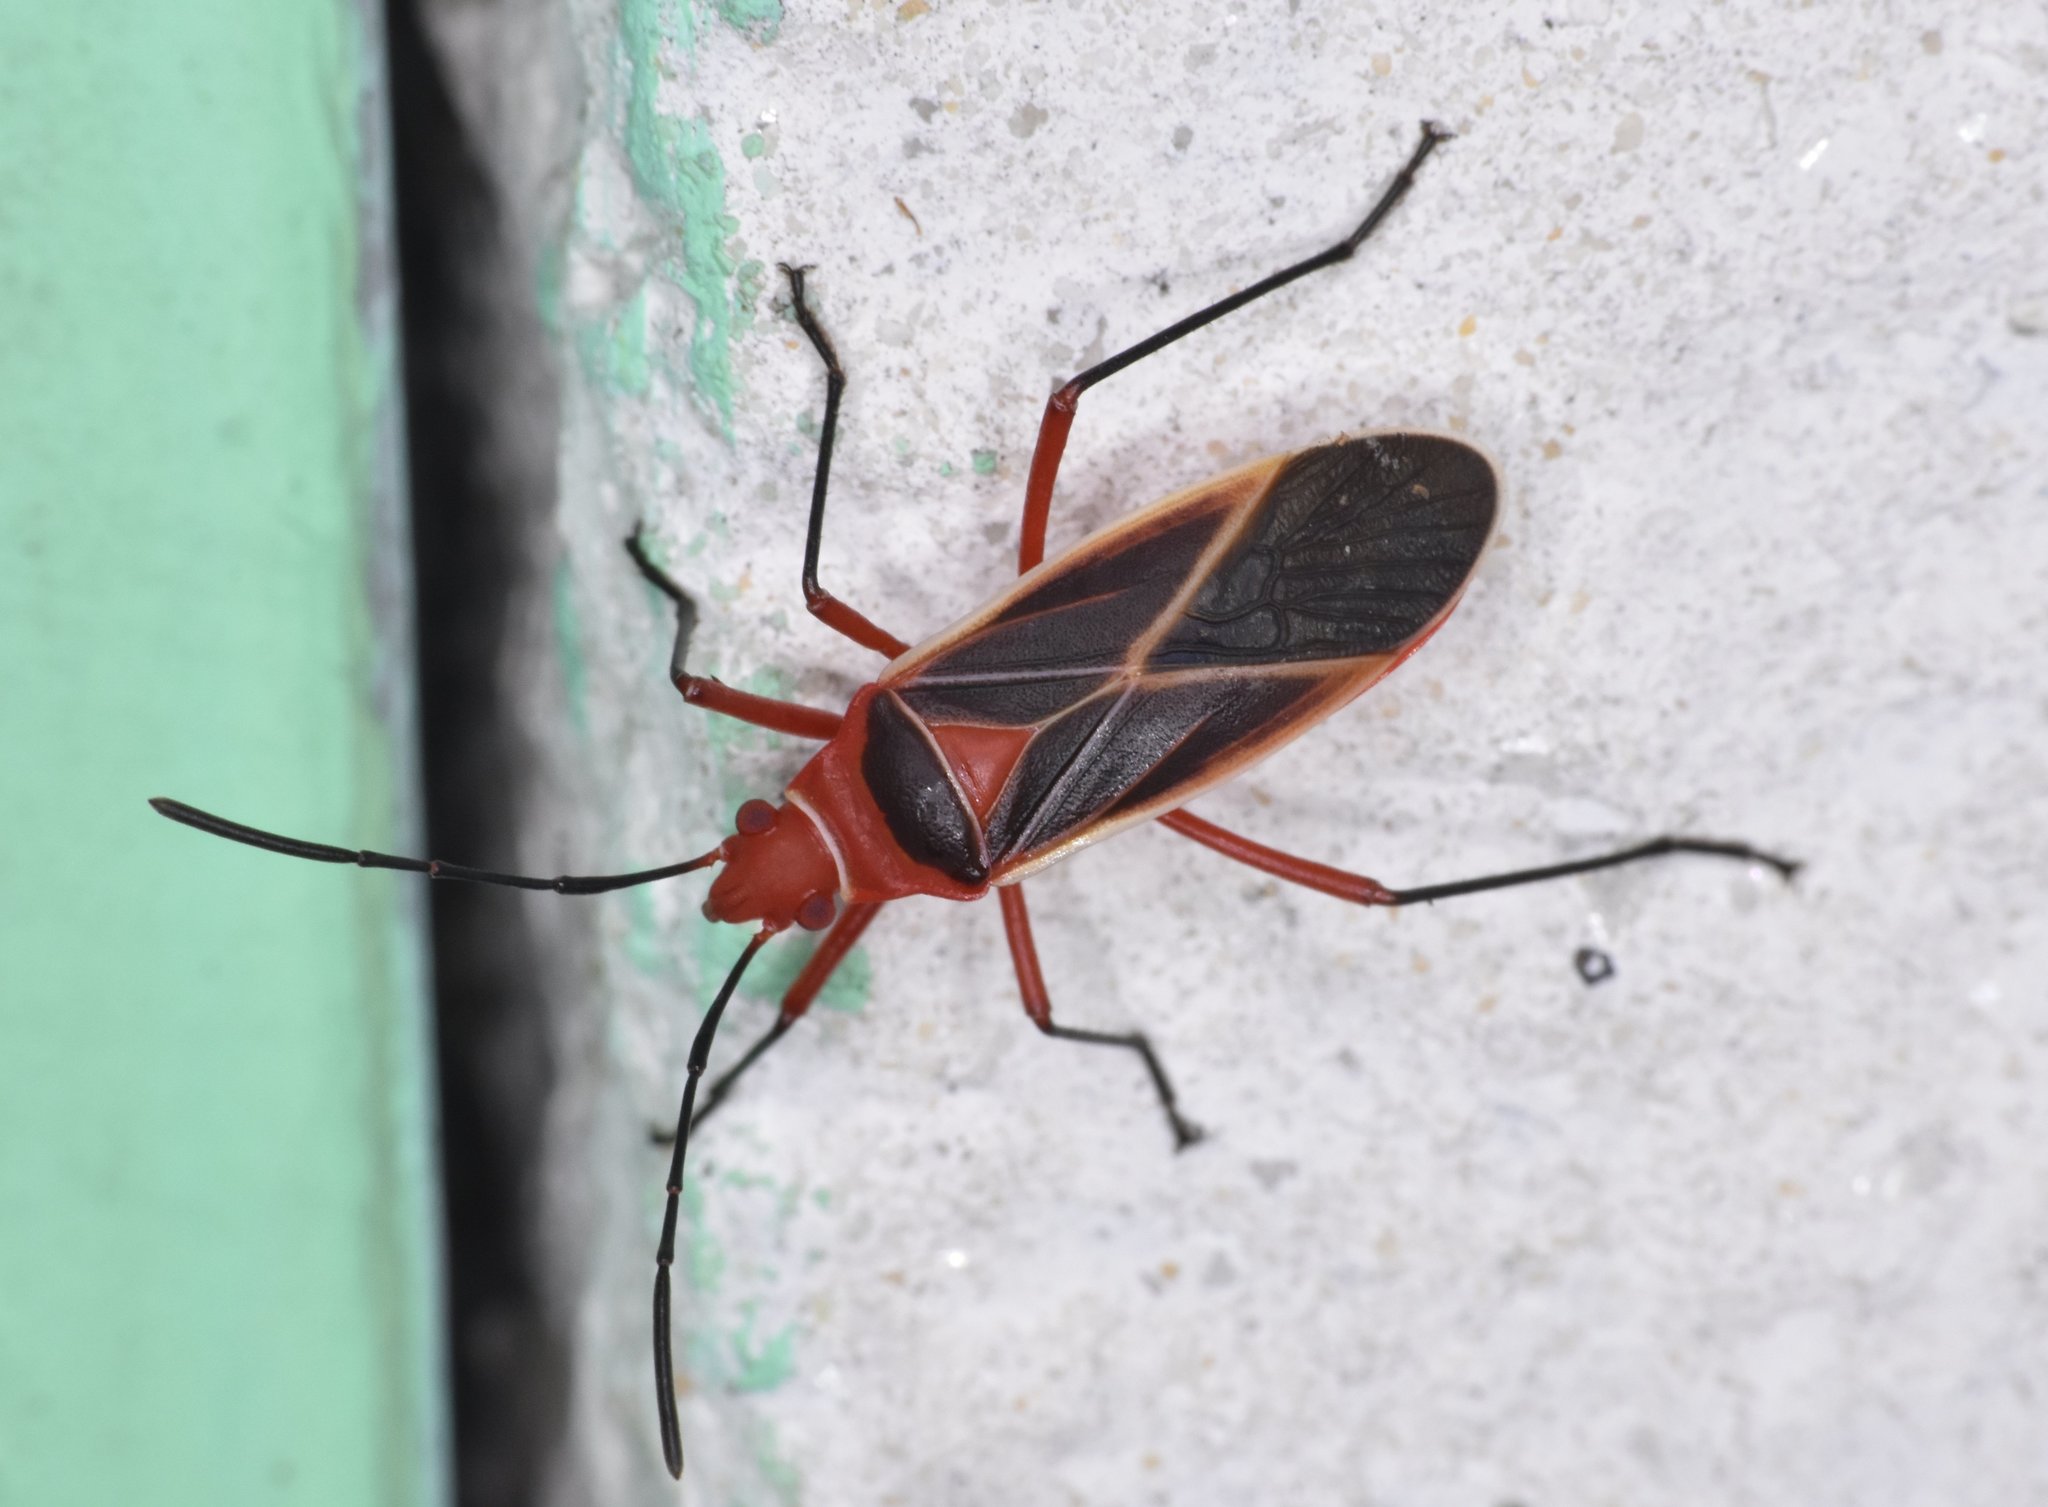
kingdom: Animalia
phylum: Arthropoda
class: Insecta
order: Hemiptera
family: Pyrrhocoridae
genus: Dysdercus
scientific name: Dysdercus suturellus
